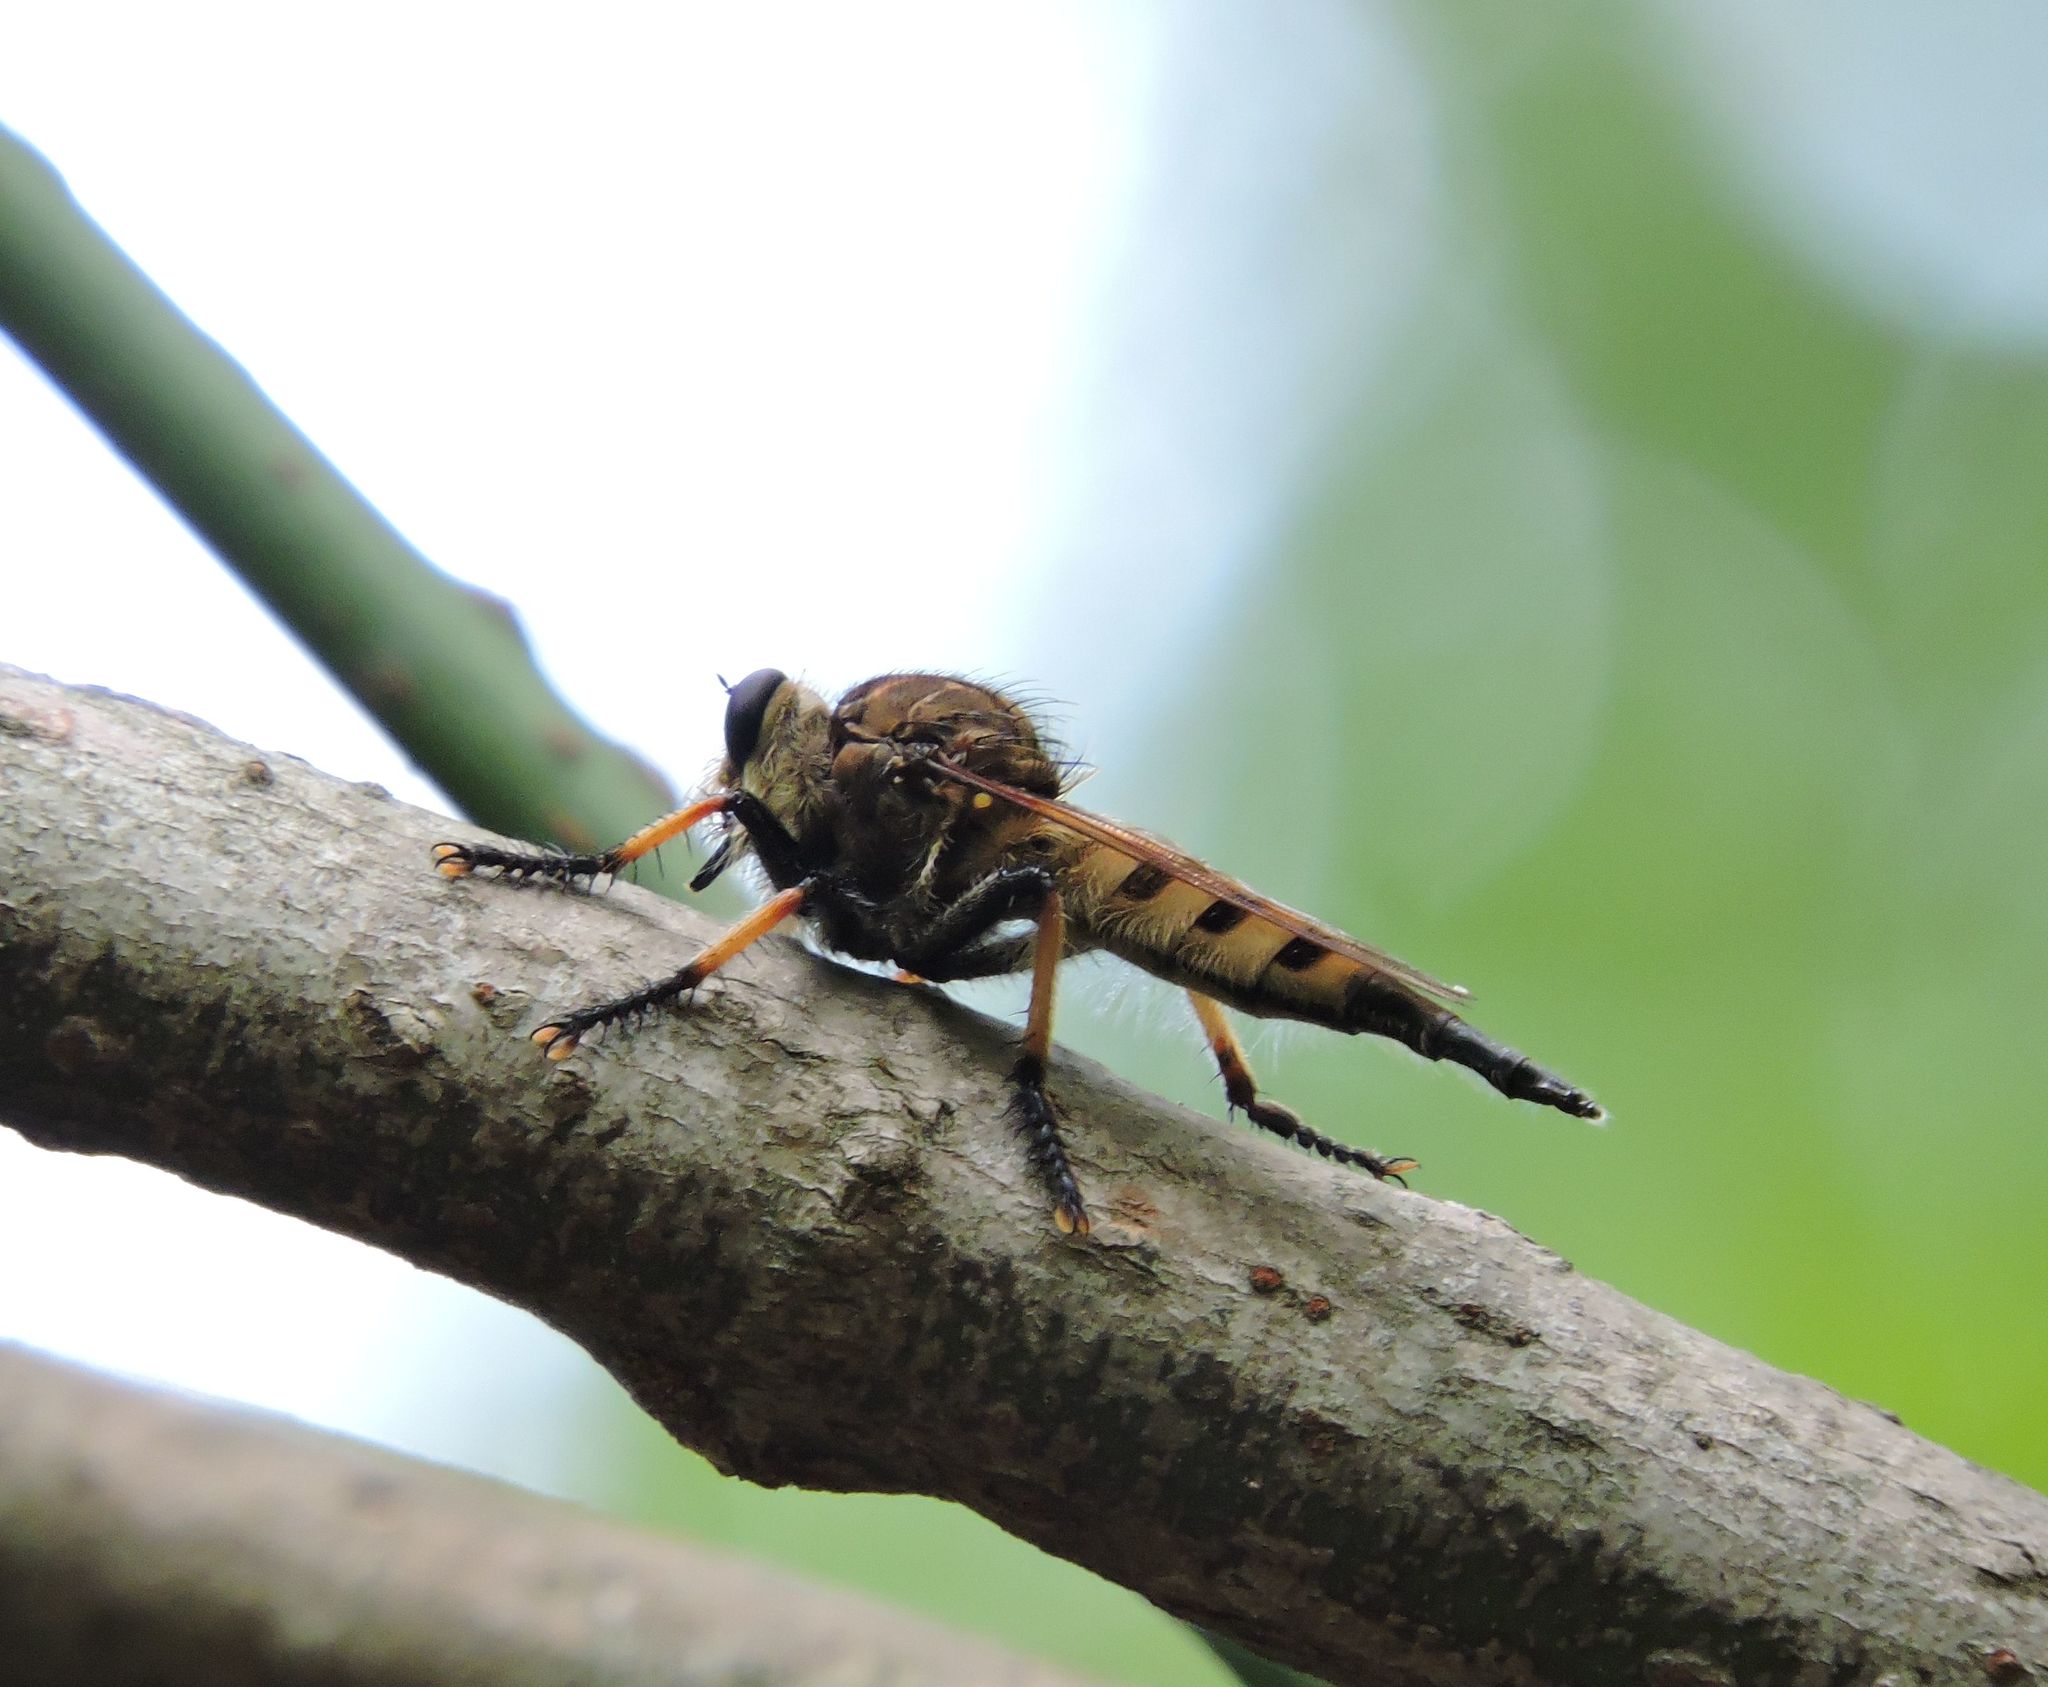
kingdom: Animalia
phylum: Arthropoda
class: Insecta
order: Diptera
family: Asilidae
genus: Promachus
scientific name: Promachus rufipes
